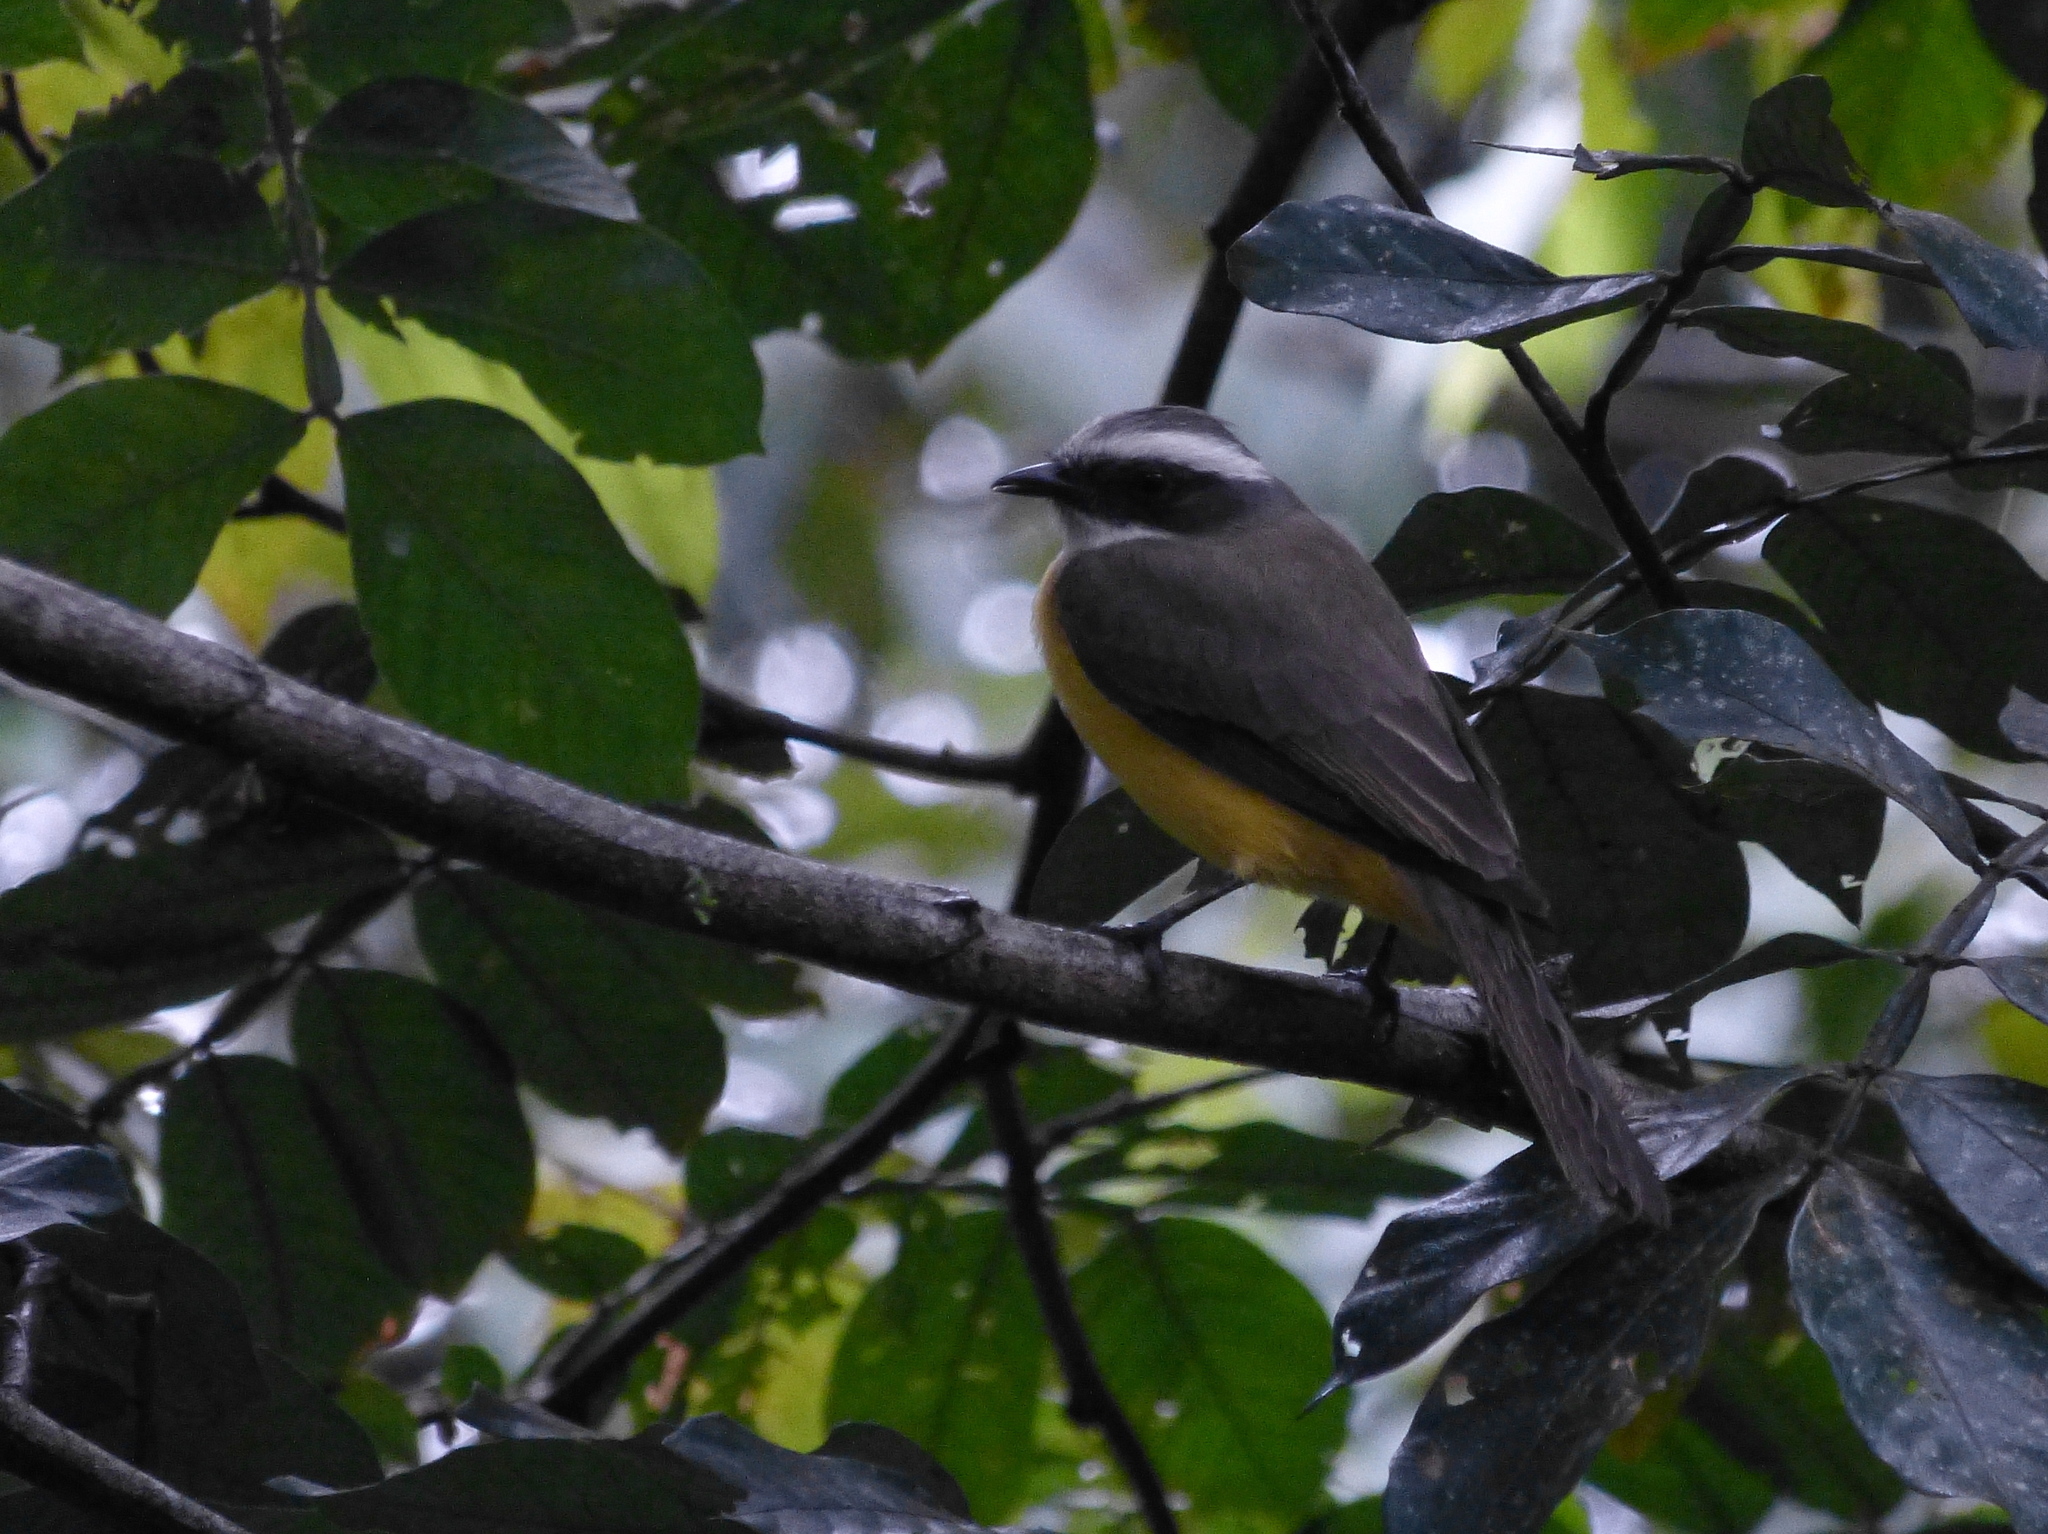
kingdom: Animalia
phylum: Chordata
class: Aves
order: Passeriformes
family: Tyrannidae
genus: Myiozetetes
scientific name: Myiozetetes similis
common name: Social flycatcher
